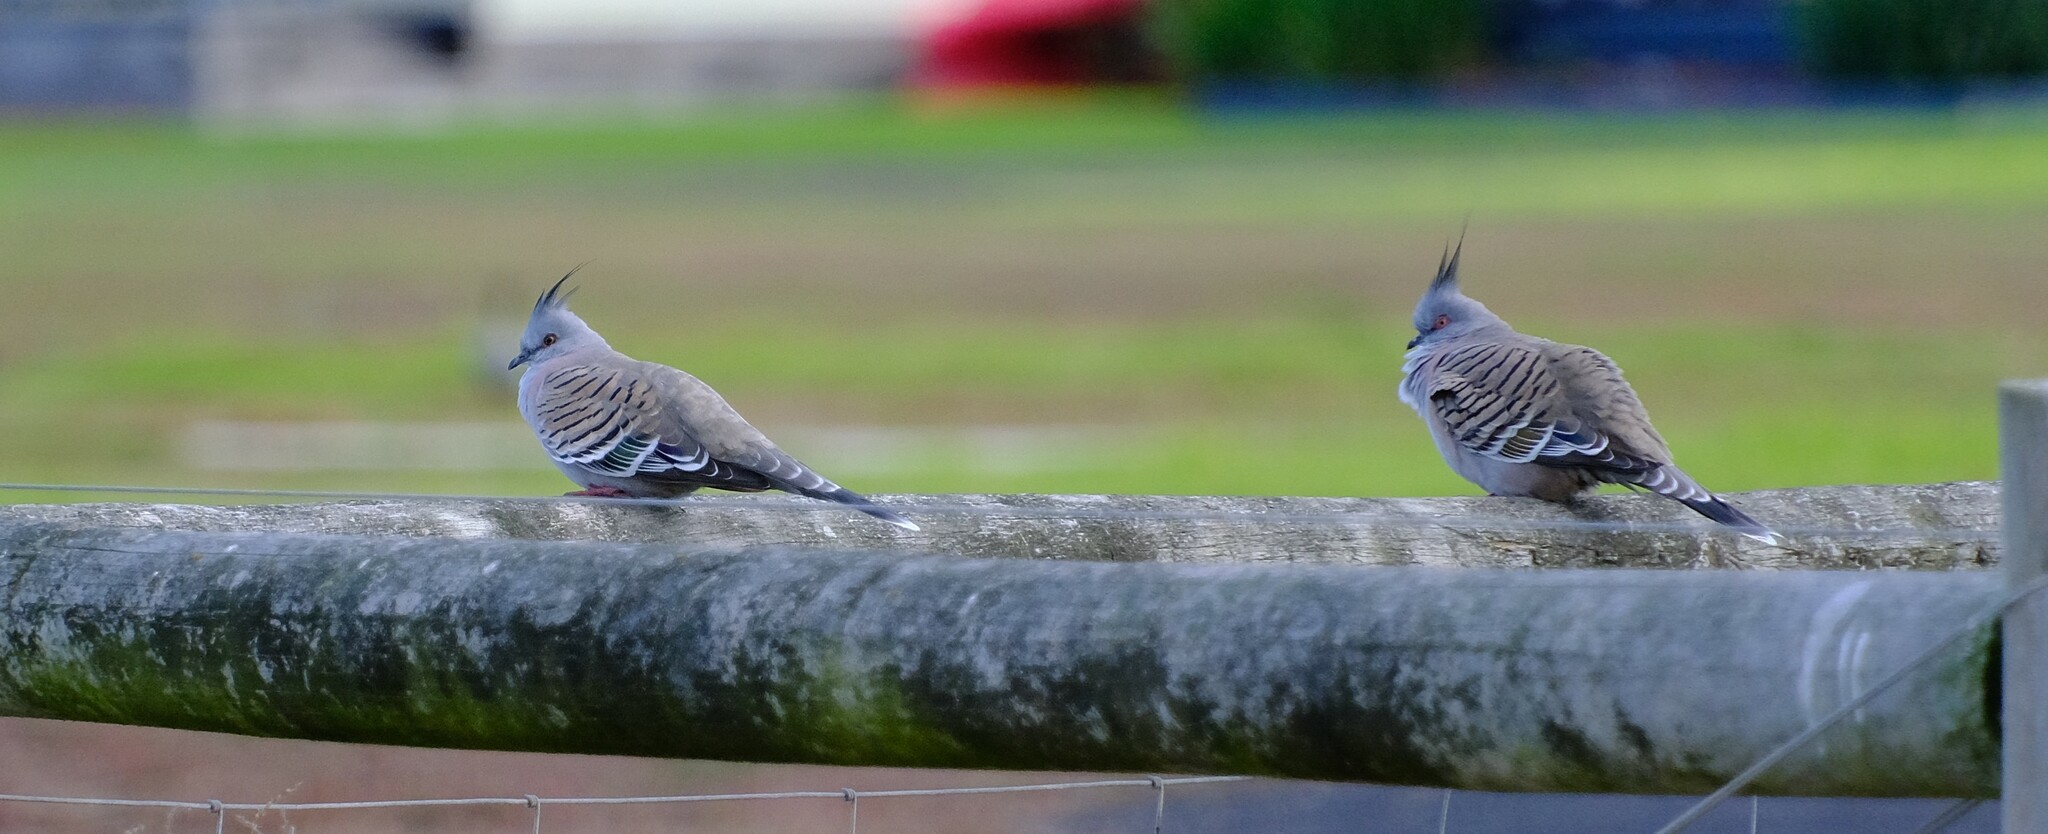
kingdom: Animalia
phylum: Chordata
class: Aves
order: Columbiformes
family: Columbidae
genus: Ocyphaps
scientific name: Ocyphaps lophotes
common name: Crested pigeon
